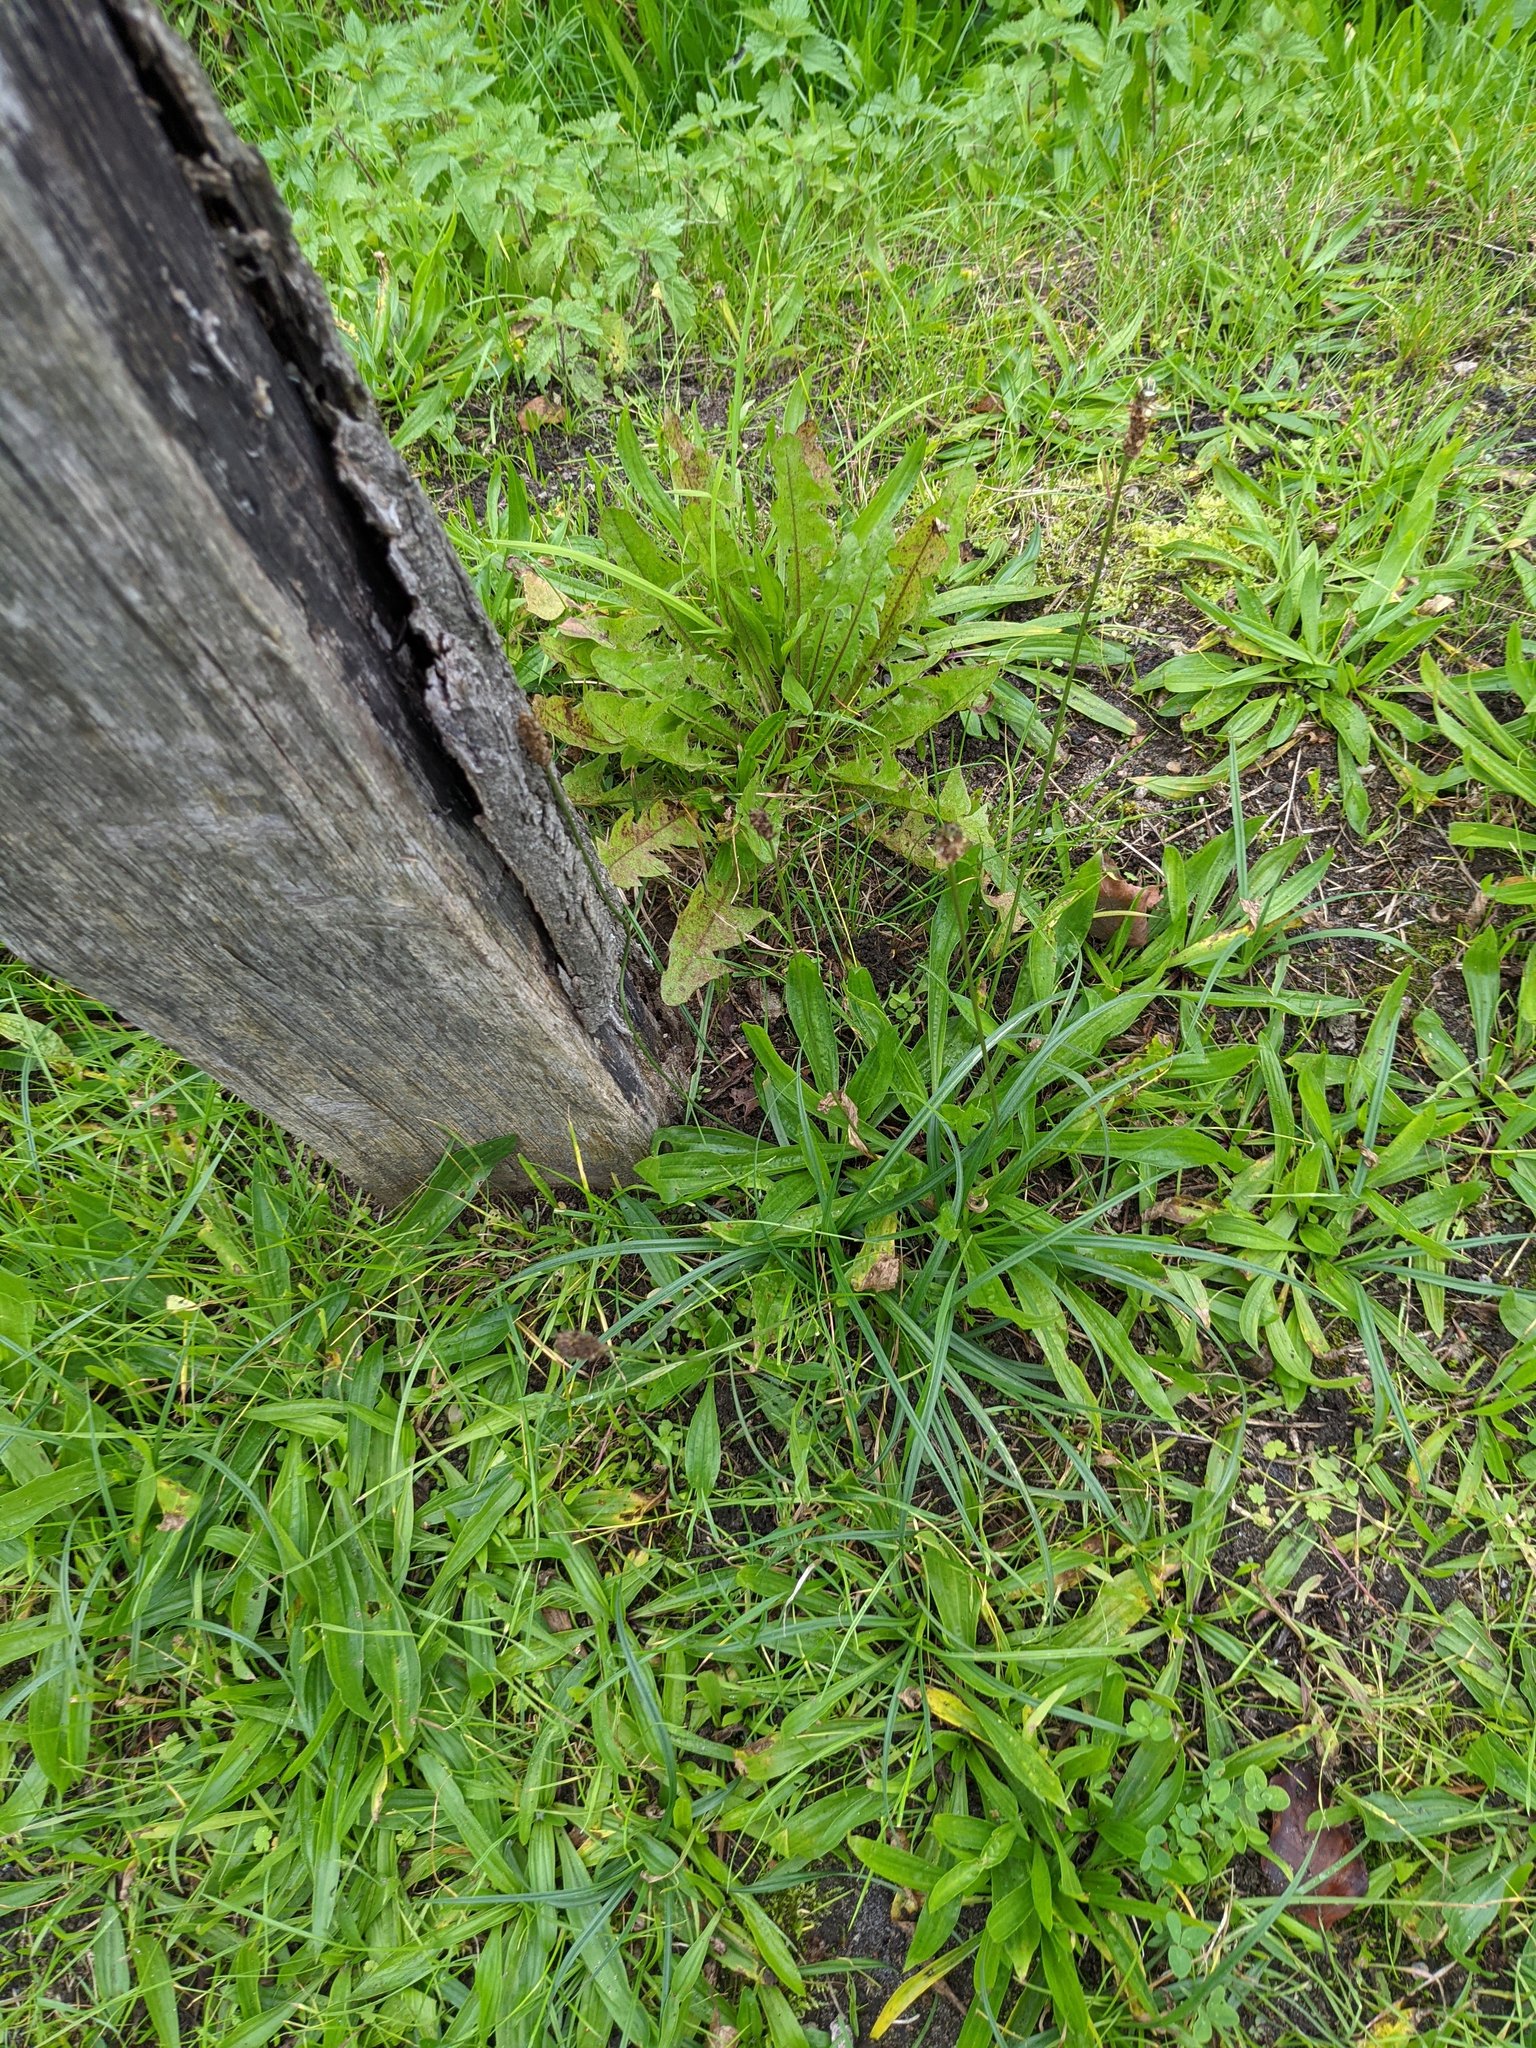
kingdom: Plantae
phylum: Tracheophyta
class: Magnoliopsida
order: Lamiales
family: Plantaginaceae
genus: Plantago
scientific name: Plantago lanceolata
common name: Ribwort plantain
